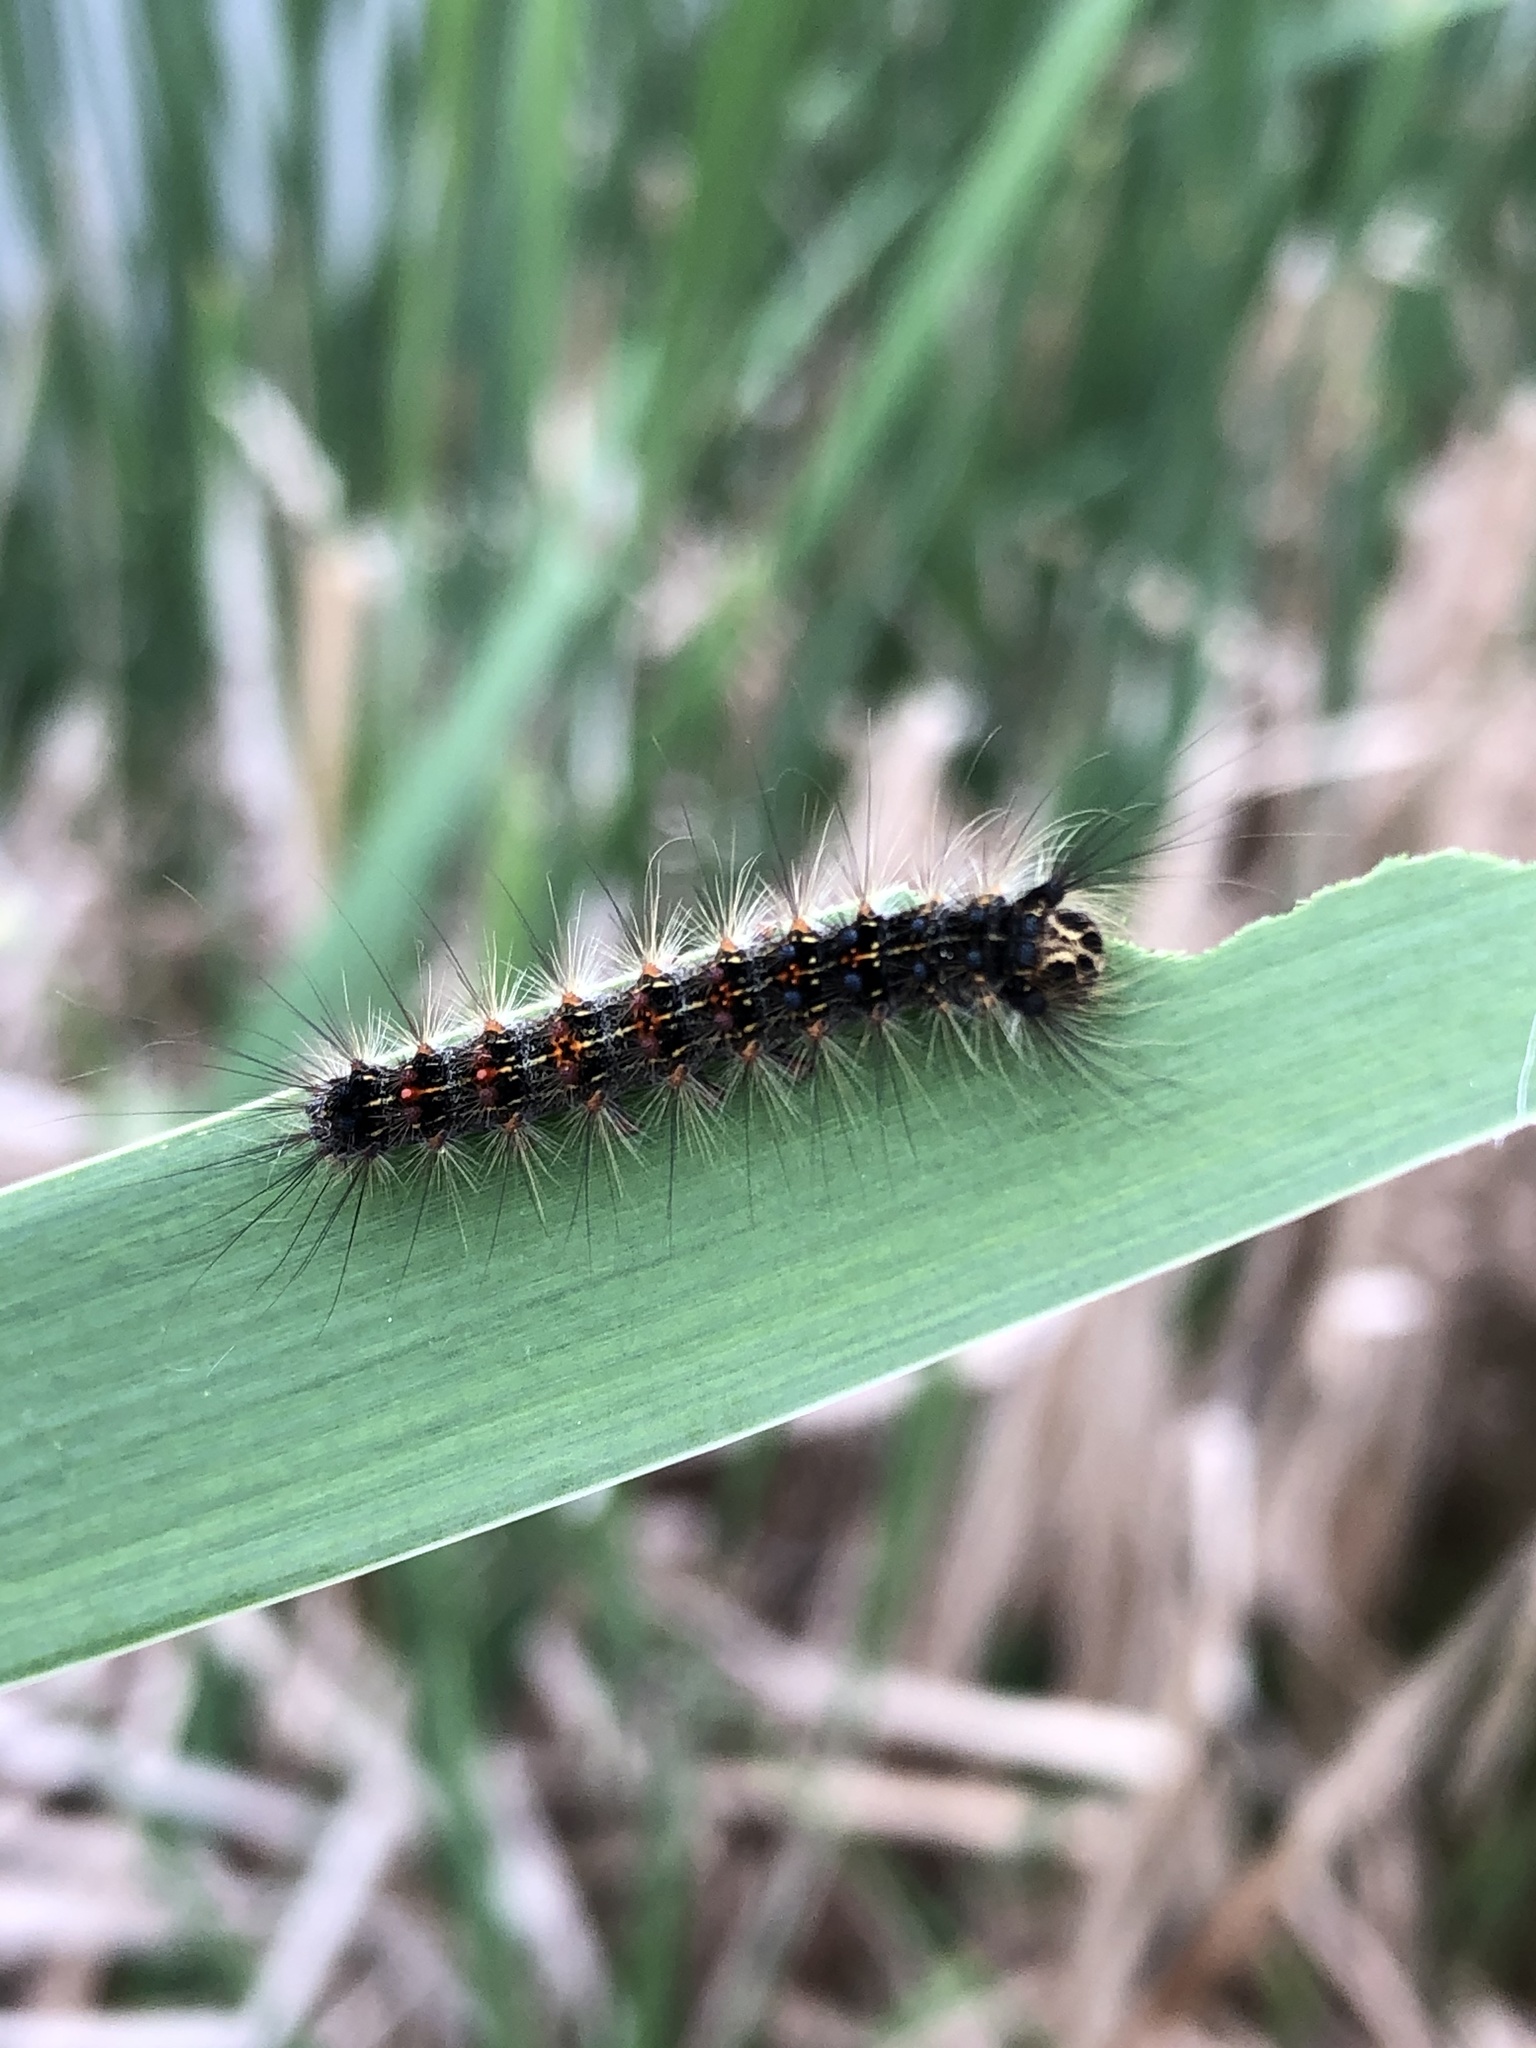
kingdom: Animalia
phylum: Arthropoda
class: Insecta
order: Lepidoptera
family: Erebidae
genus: Lymantria
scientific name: Lymantria dispar
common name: Gypsy moth
